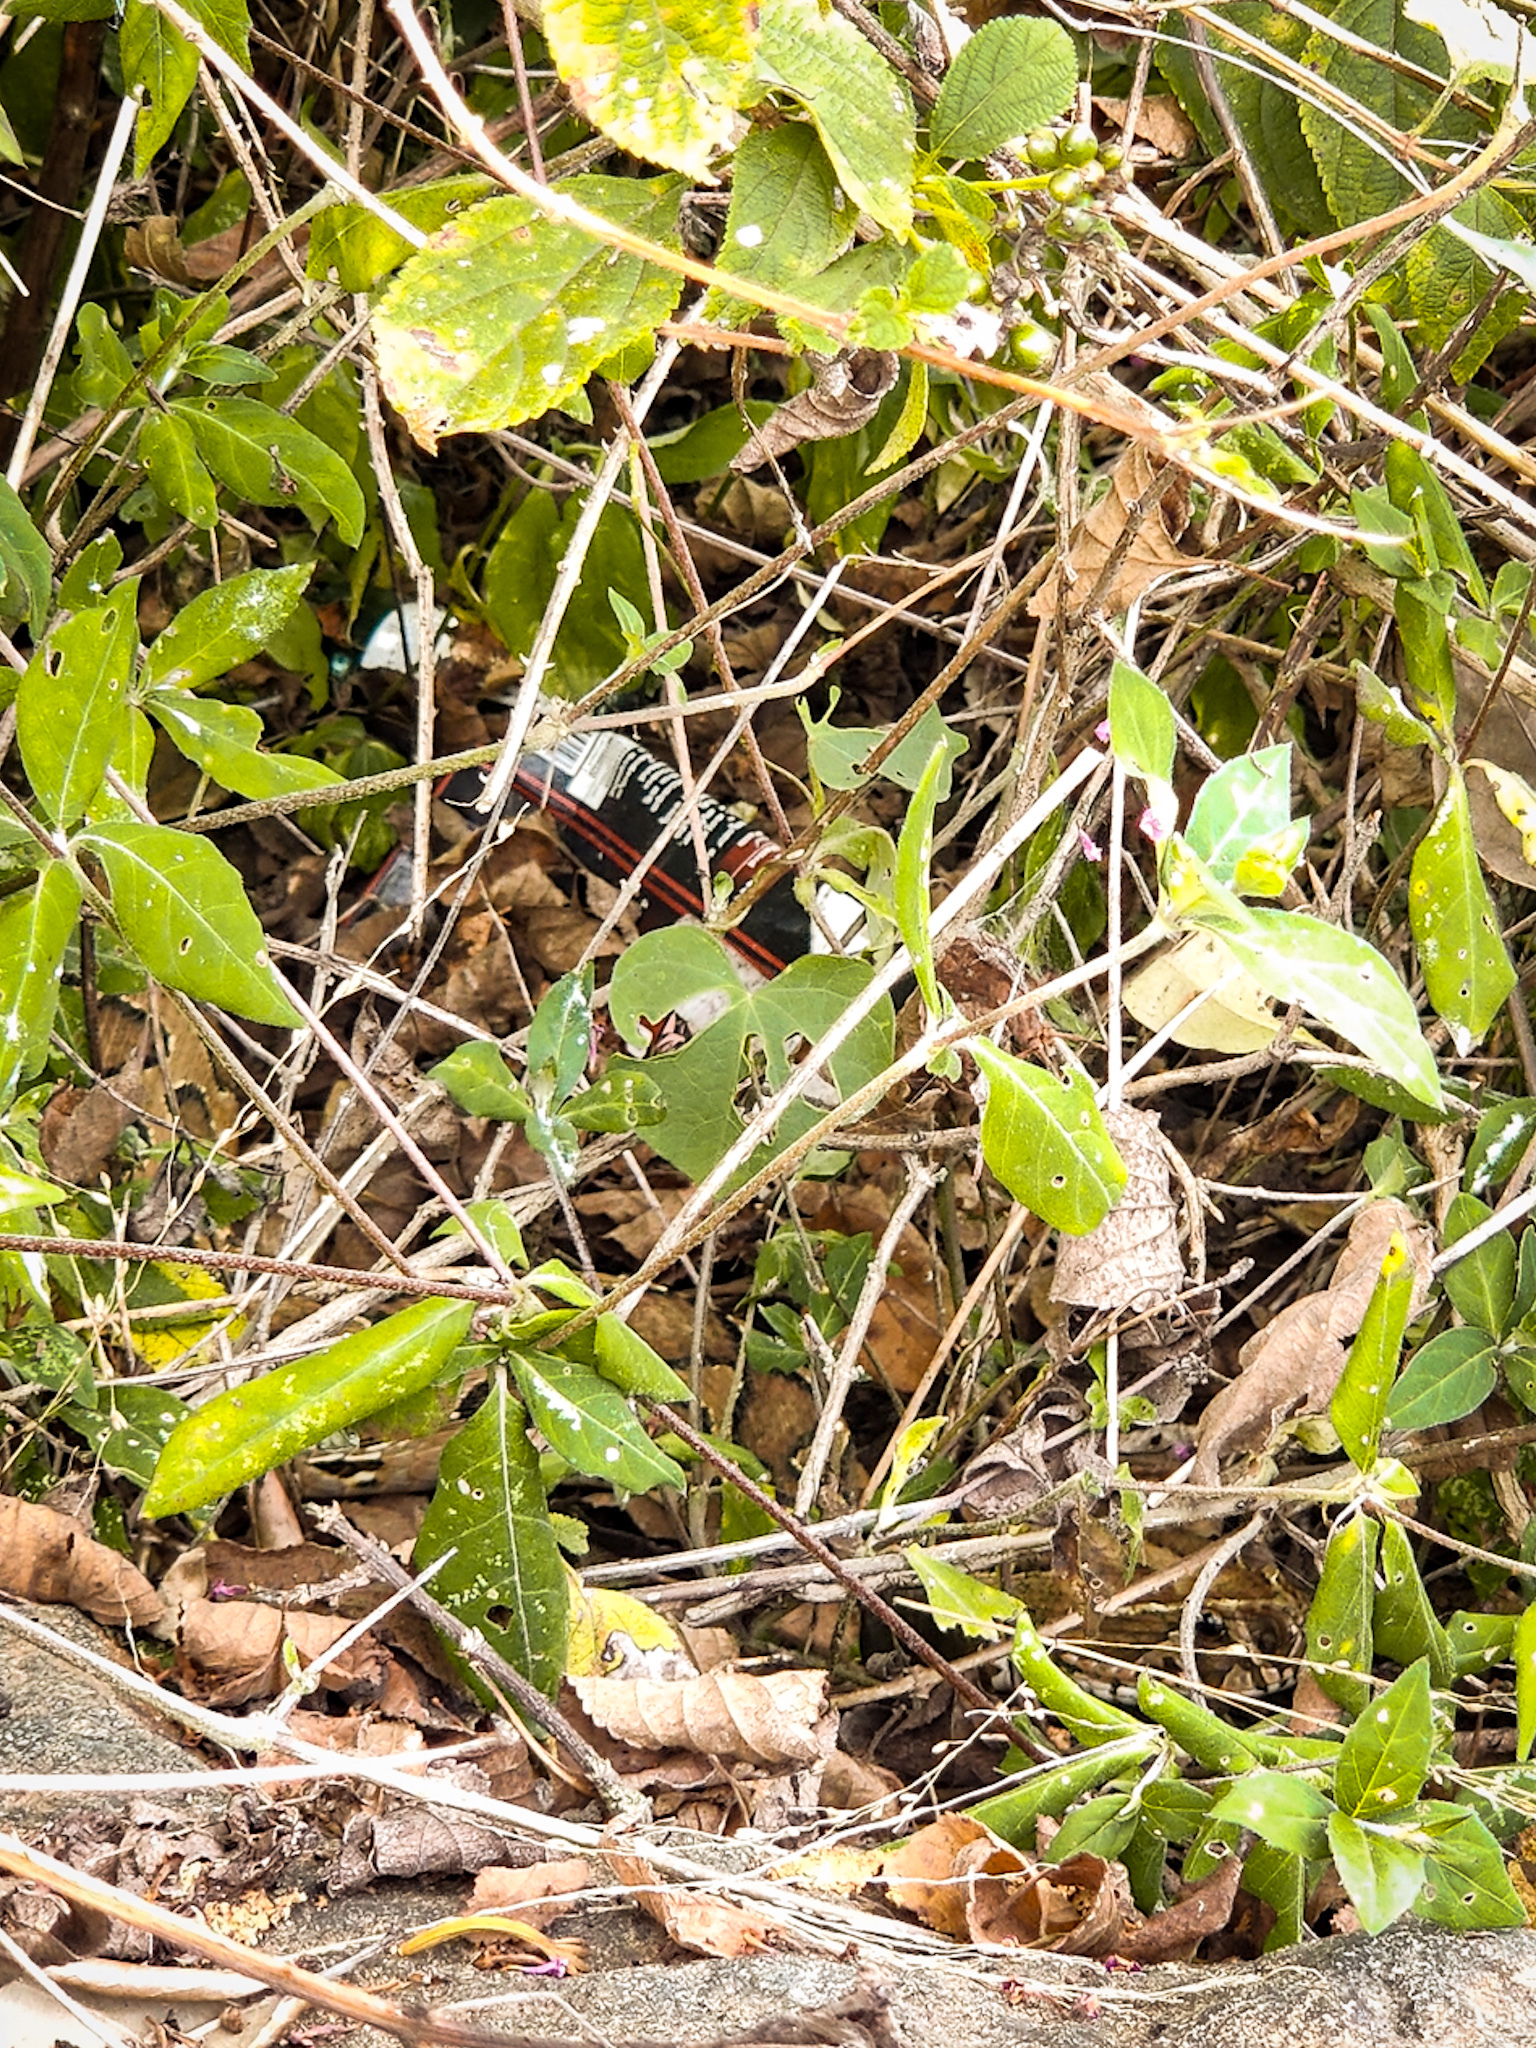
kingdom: Animalia
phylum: Chordata
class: Squamata
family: Viperidae
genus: Daboia
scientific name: Daboia russelii
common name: Western russel’s viper
